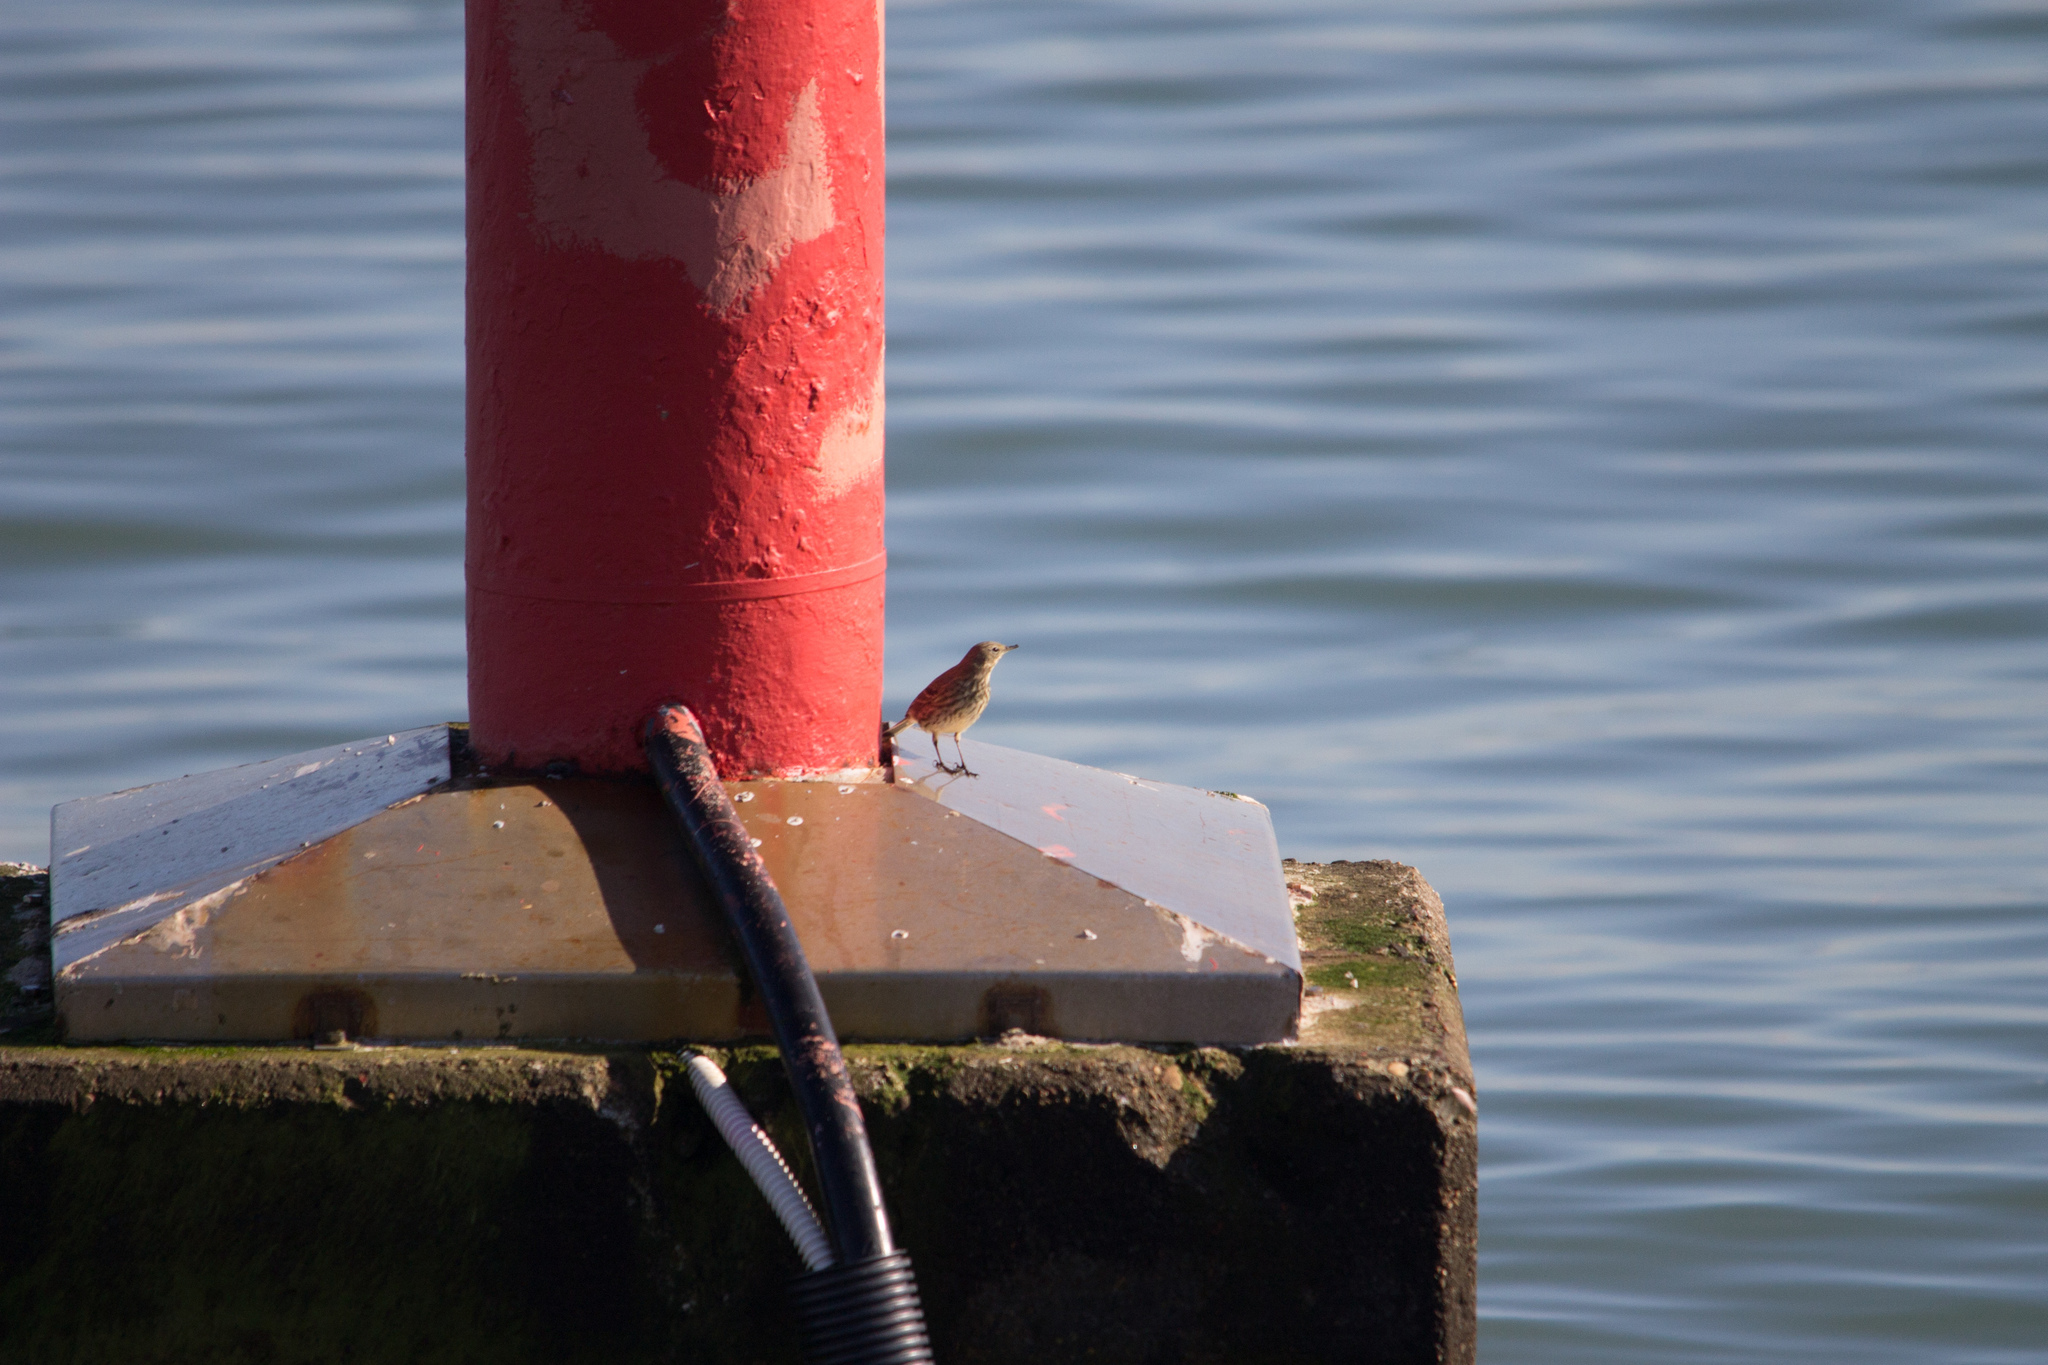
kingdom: Animalia
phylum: Chordata
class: Aves
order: Passeriformes
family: Motacillidae
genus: Anthus
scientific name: Anthus petrosus
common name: Eurasian rock pipit
